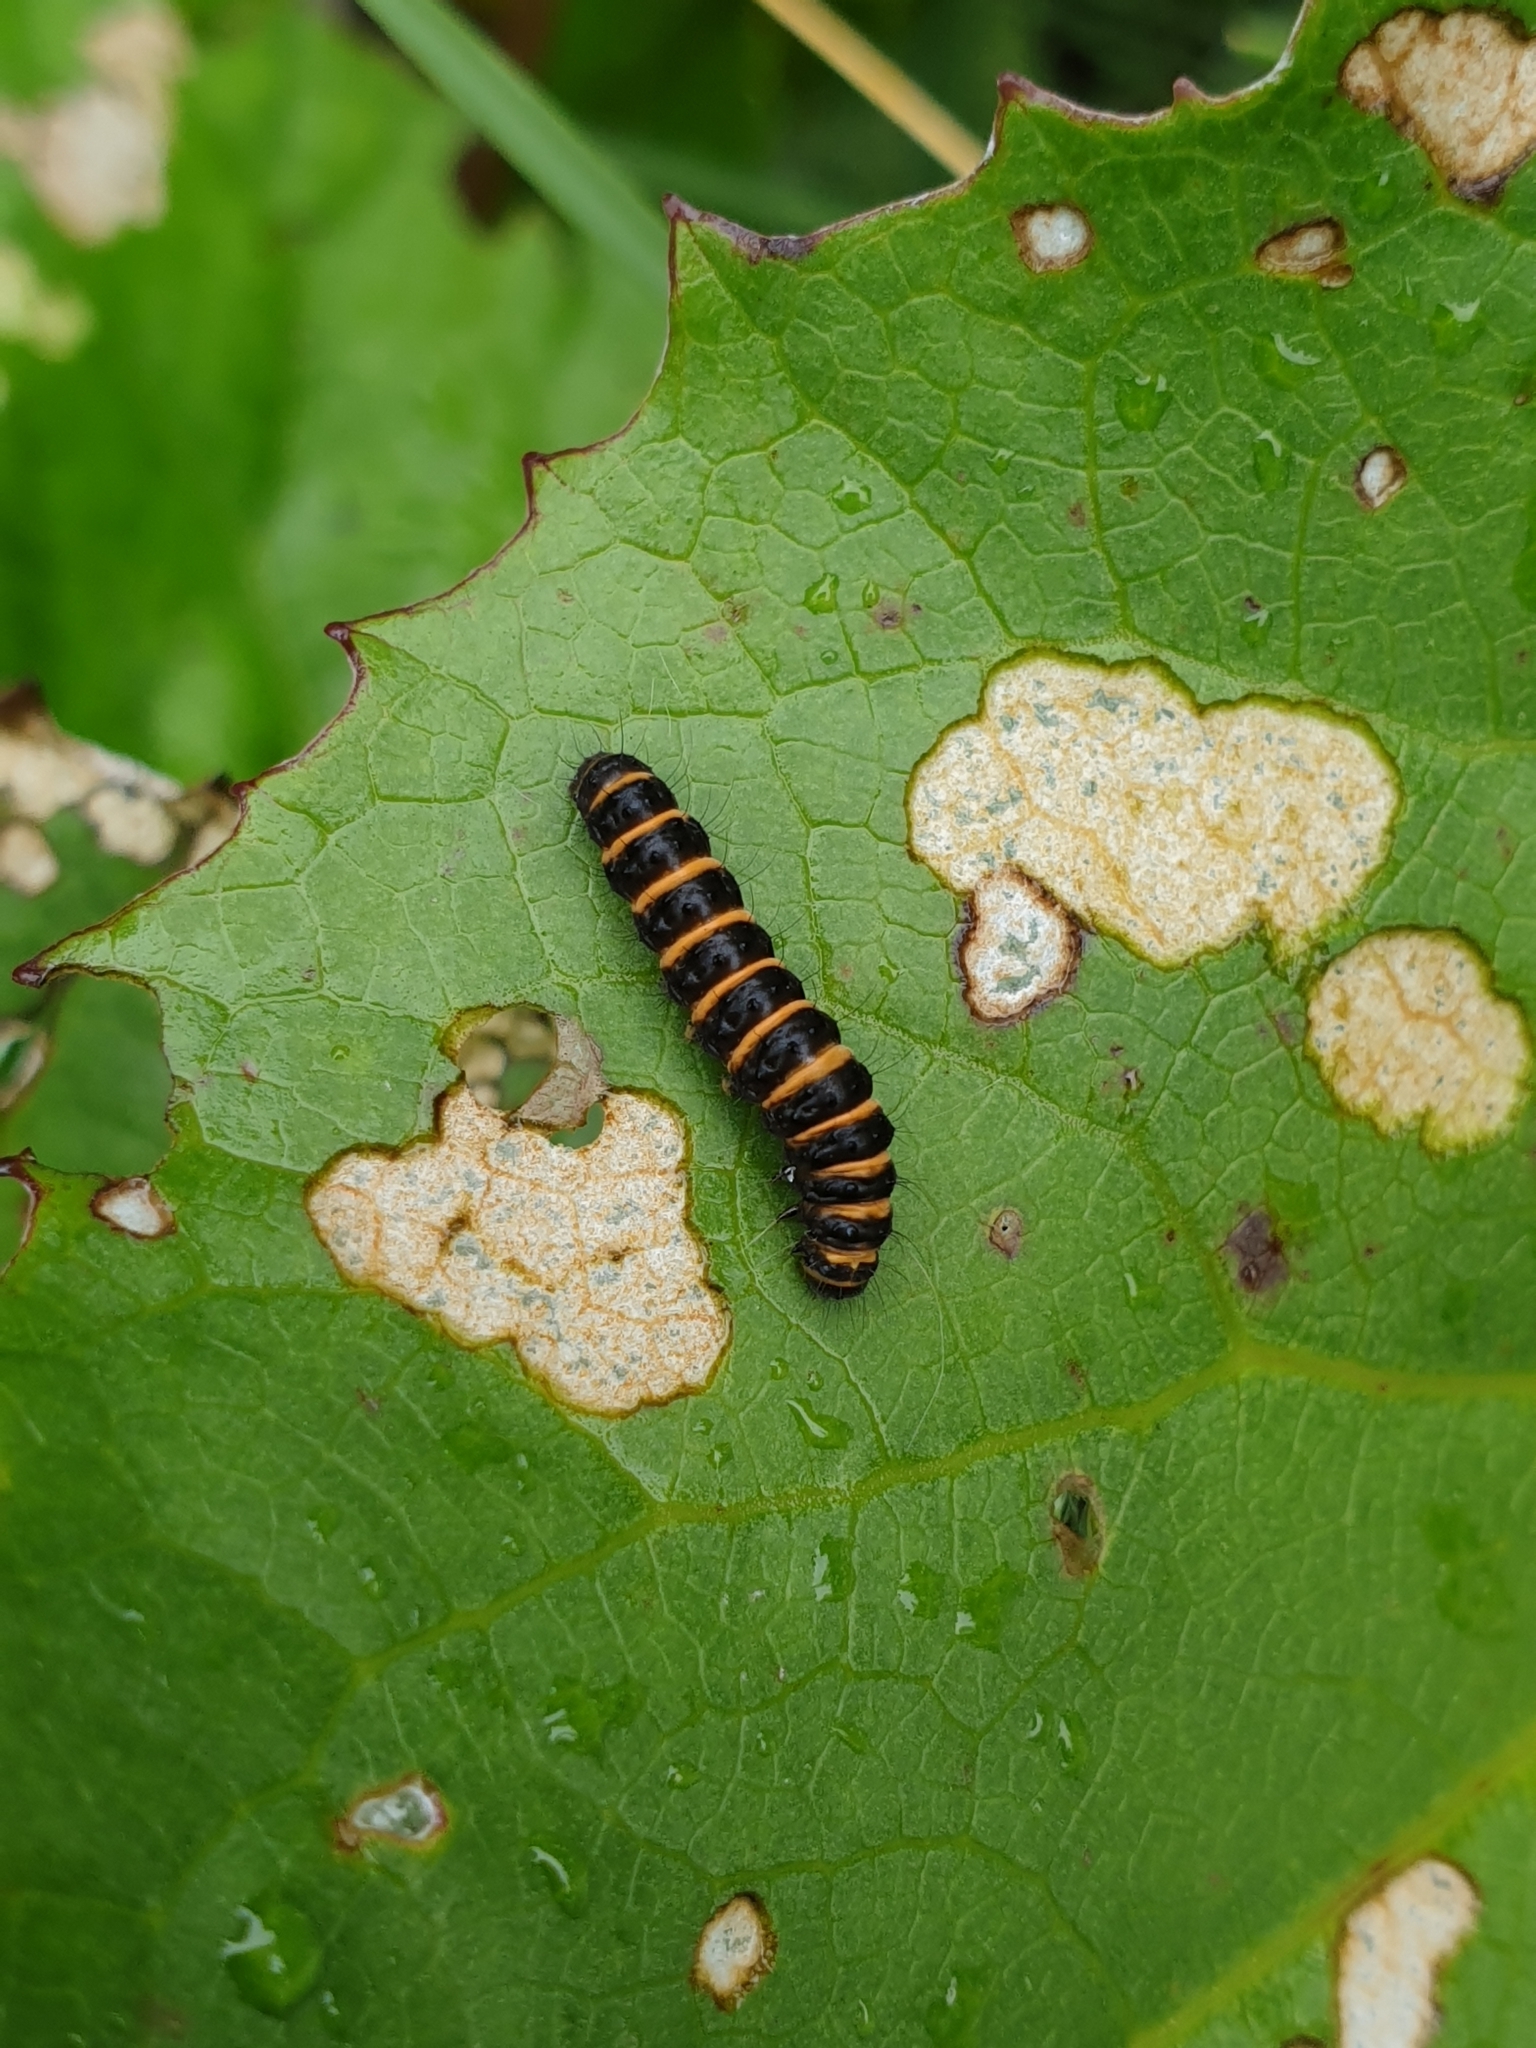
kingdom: Animalia
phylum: Arthropoda
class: Insecta
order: Lepidoptera
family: Erebidae
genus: Tyria
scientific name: Tyria jacobaeae
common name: Cinnabar
